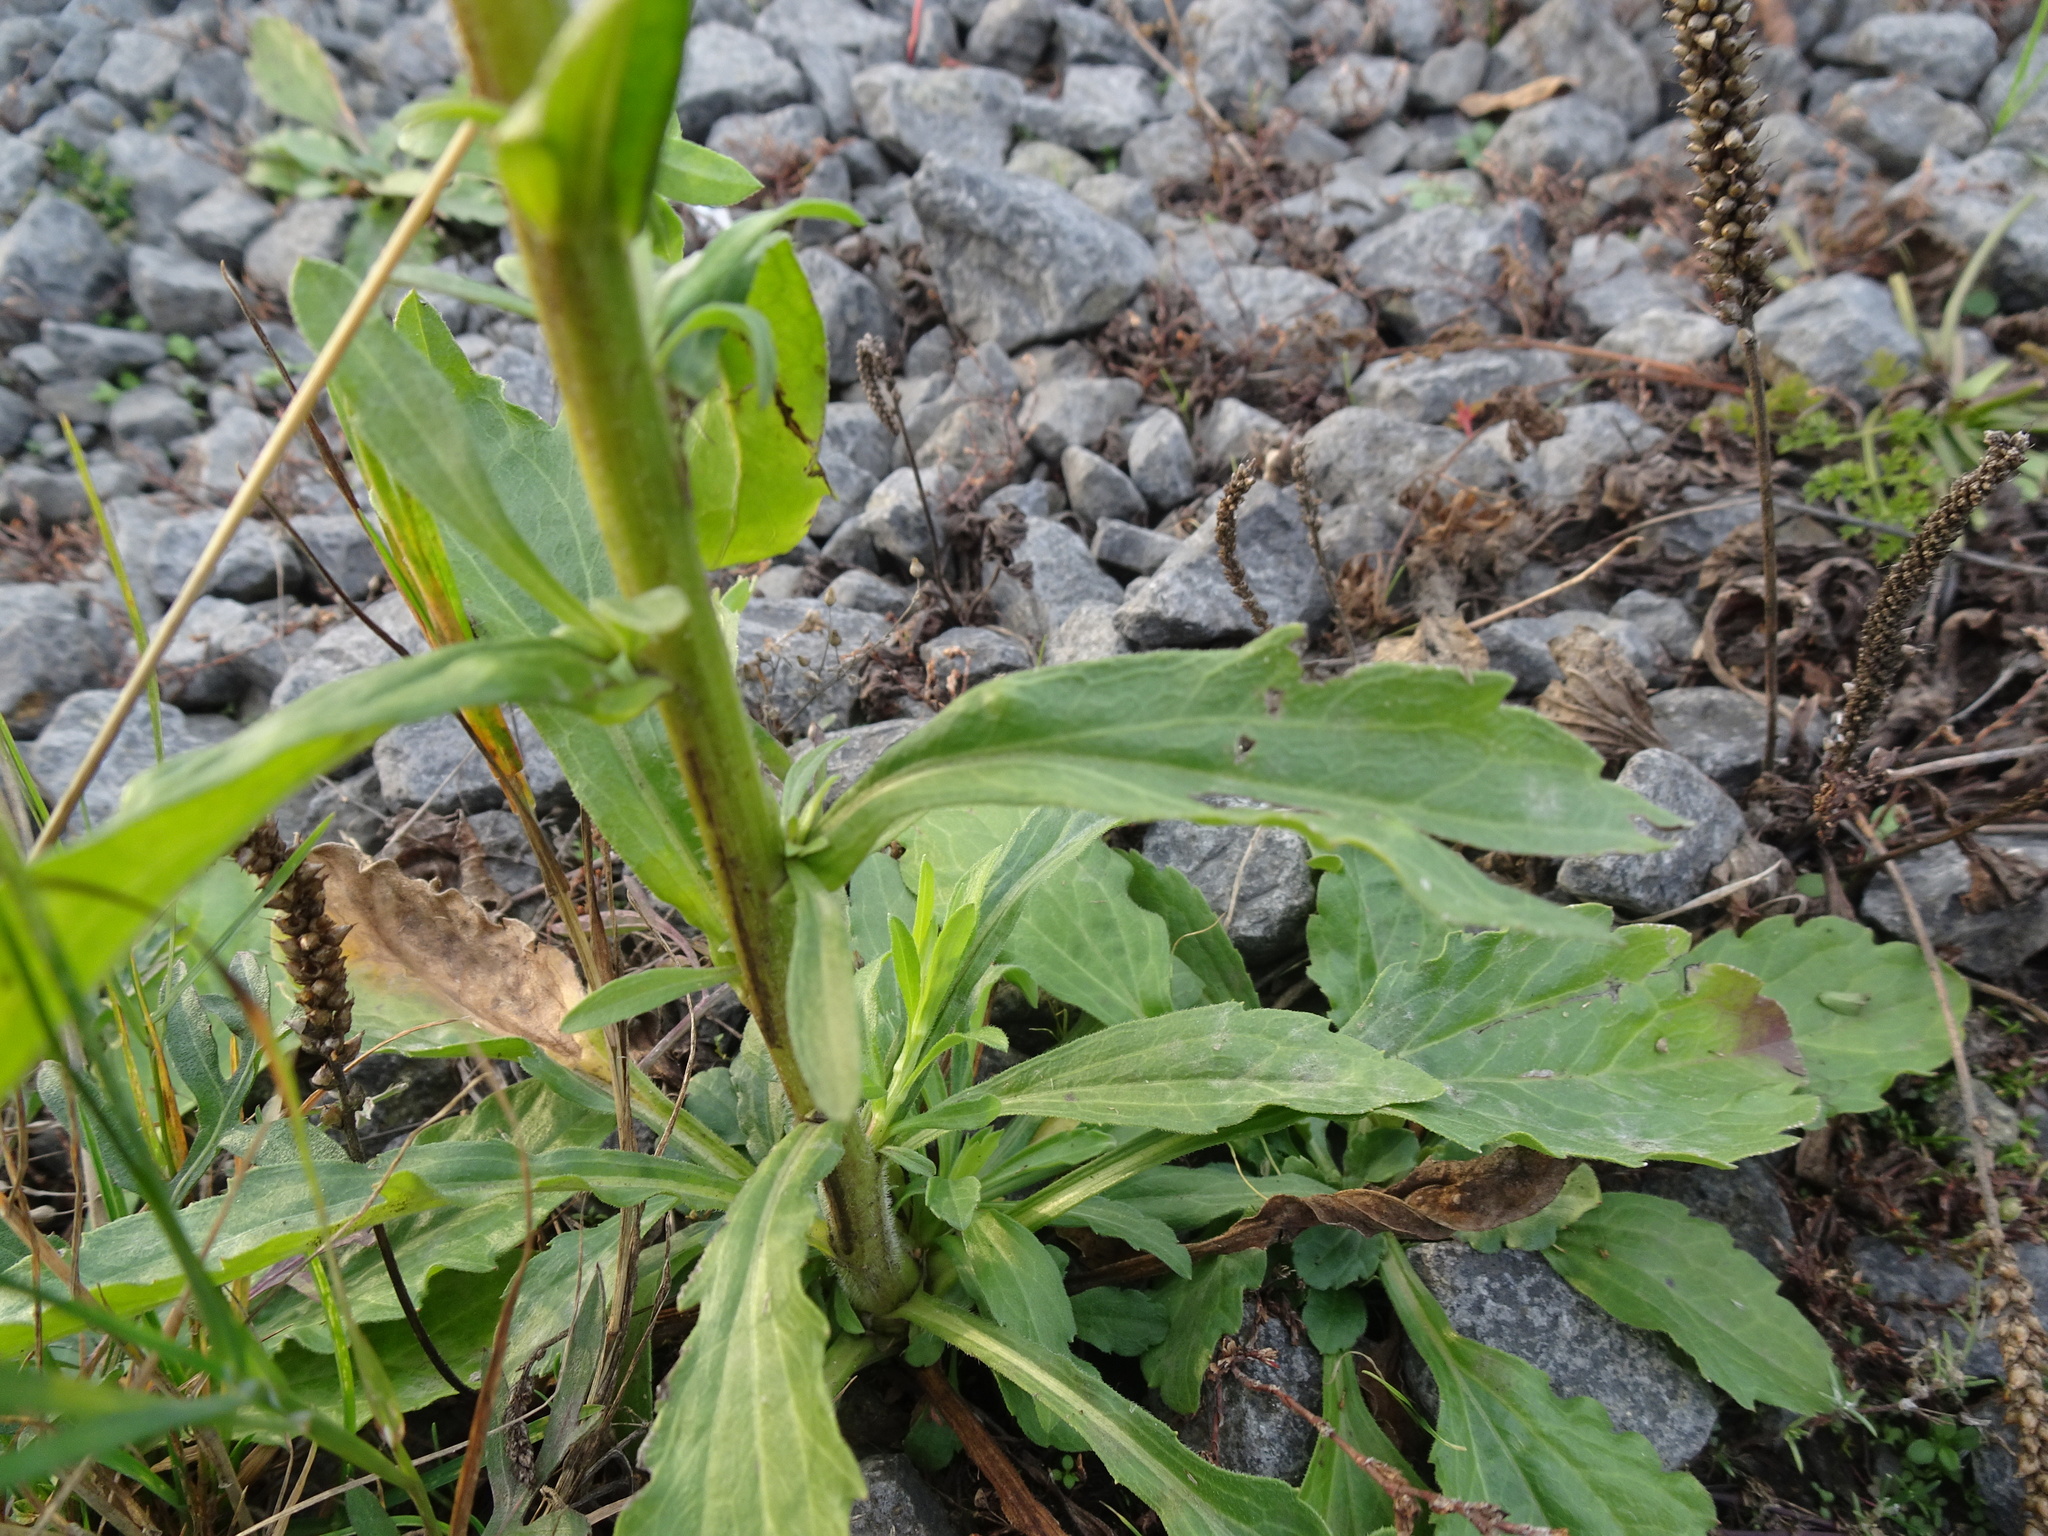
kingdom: Plantae
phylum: Tracheophyta
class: Magnoliopsida
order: Asterales
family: Asteraceae
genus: Erigeron
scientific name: Erigeron annuus
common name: Tall fleabane
